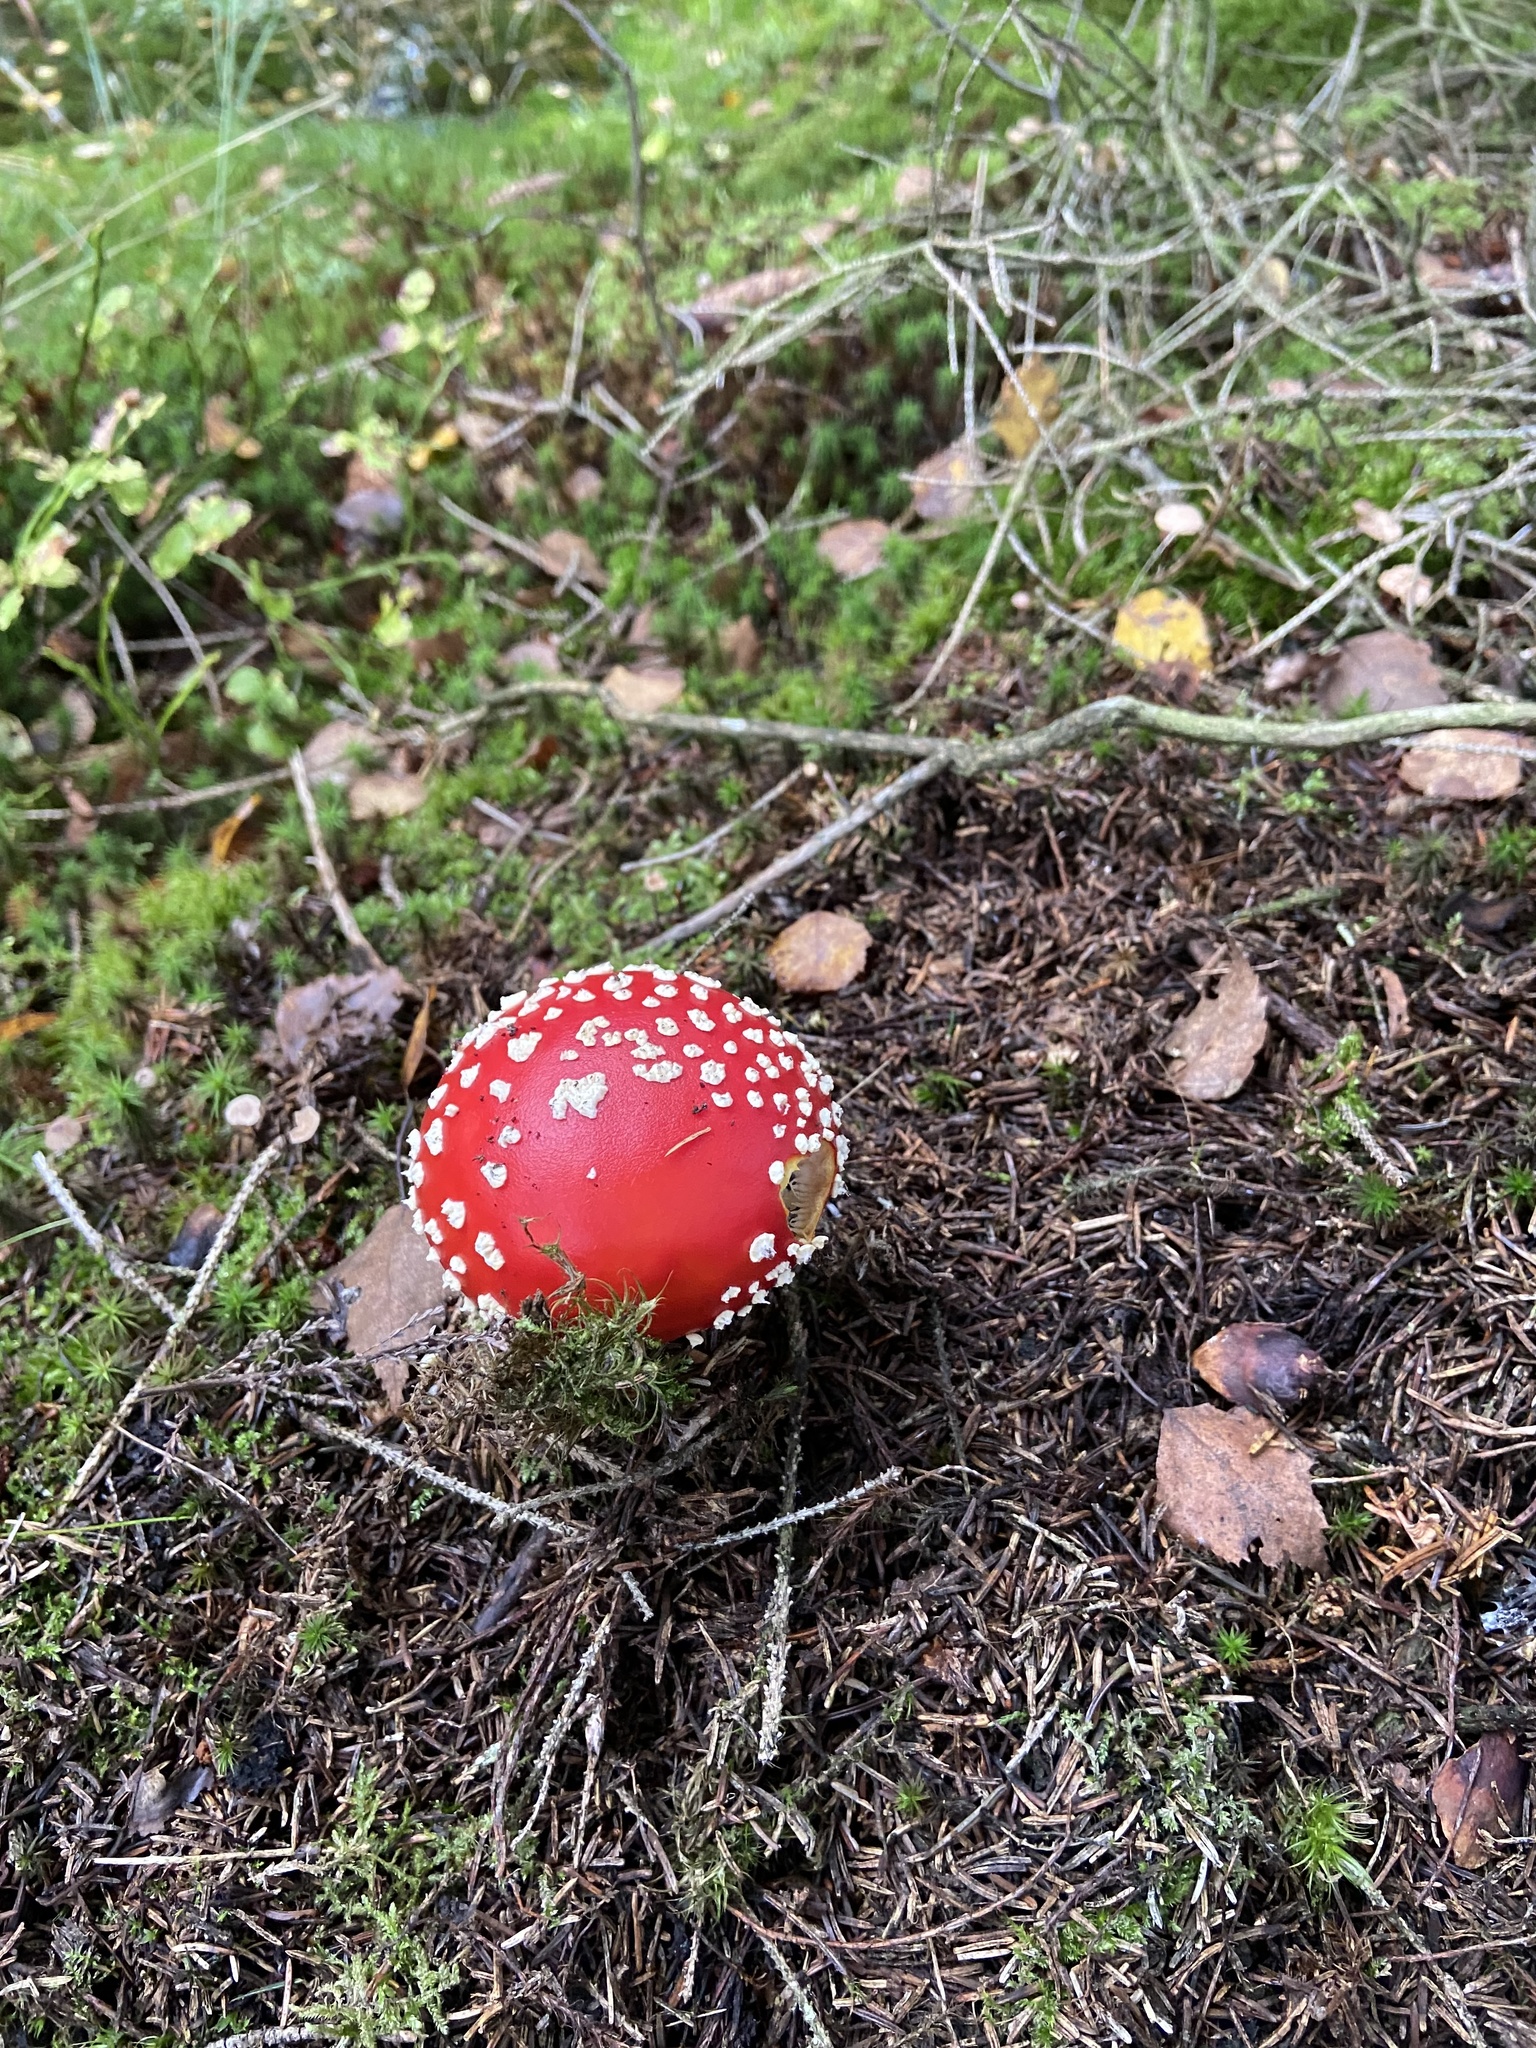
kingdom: Fungi
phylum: Basidiomycota
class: Agaricomycetes
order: Agaricales
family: Amanitaceae
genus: Amanita
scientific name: Amanita muscaria
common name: Fly agaric
